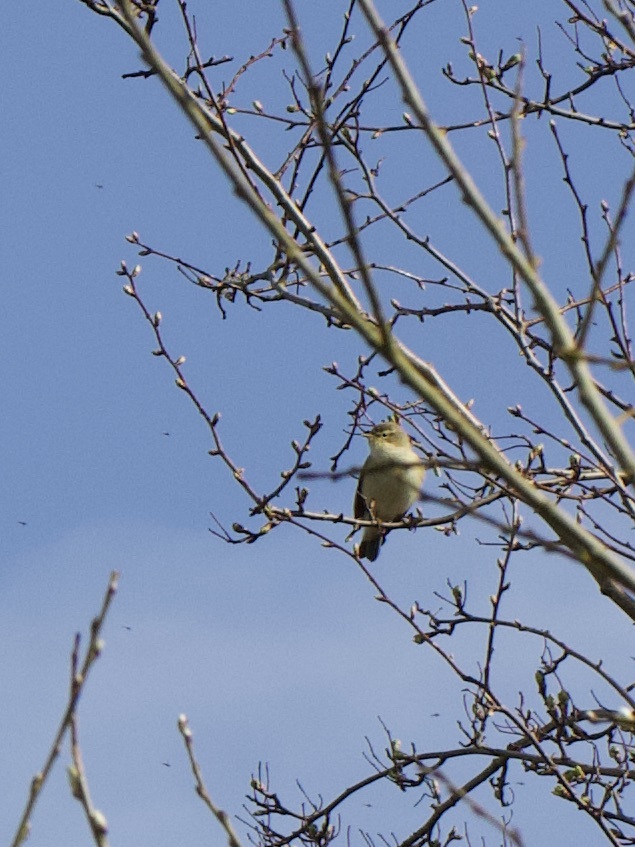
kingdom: Animalia
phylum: Chordata
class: Aves
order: Passeriformes
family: Phylloscopidae
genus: Phylloscopus
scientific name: Phylloscopus collybita
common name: Common chiffchaff
